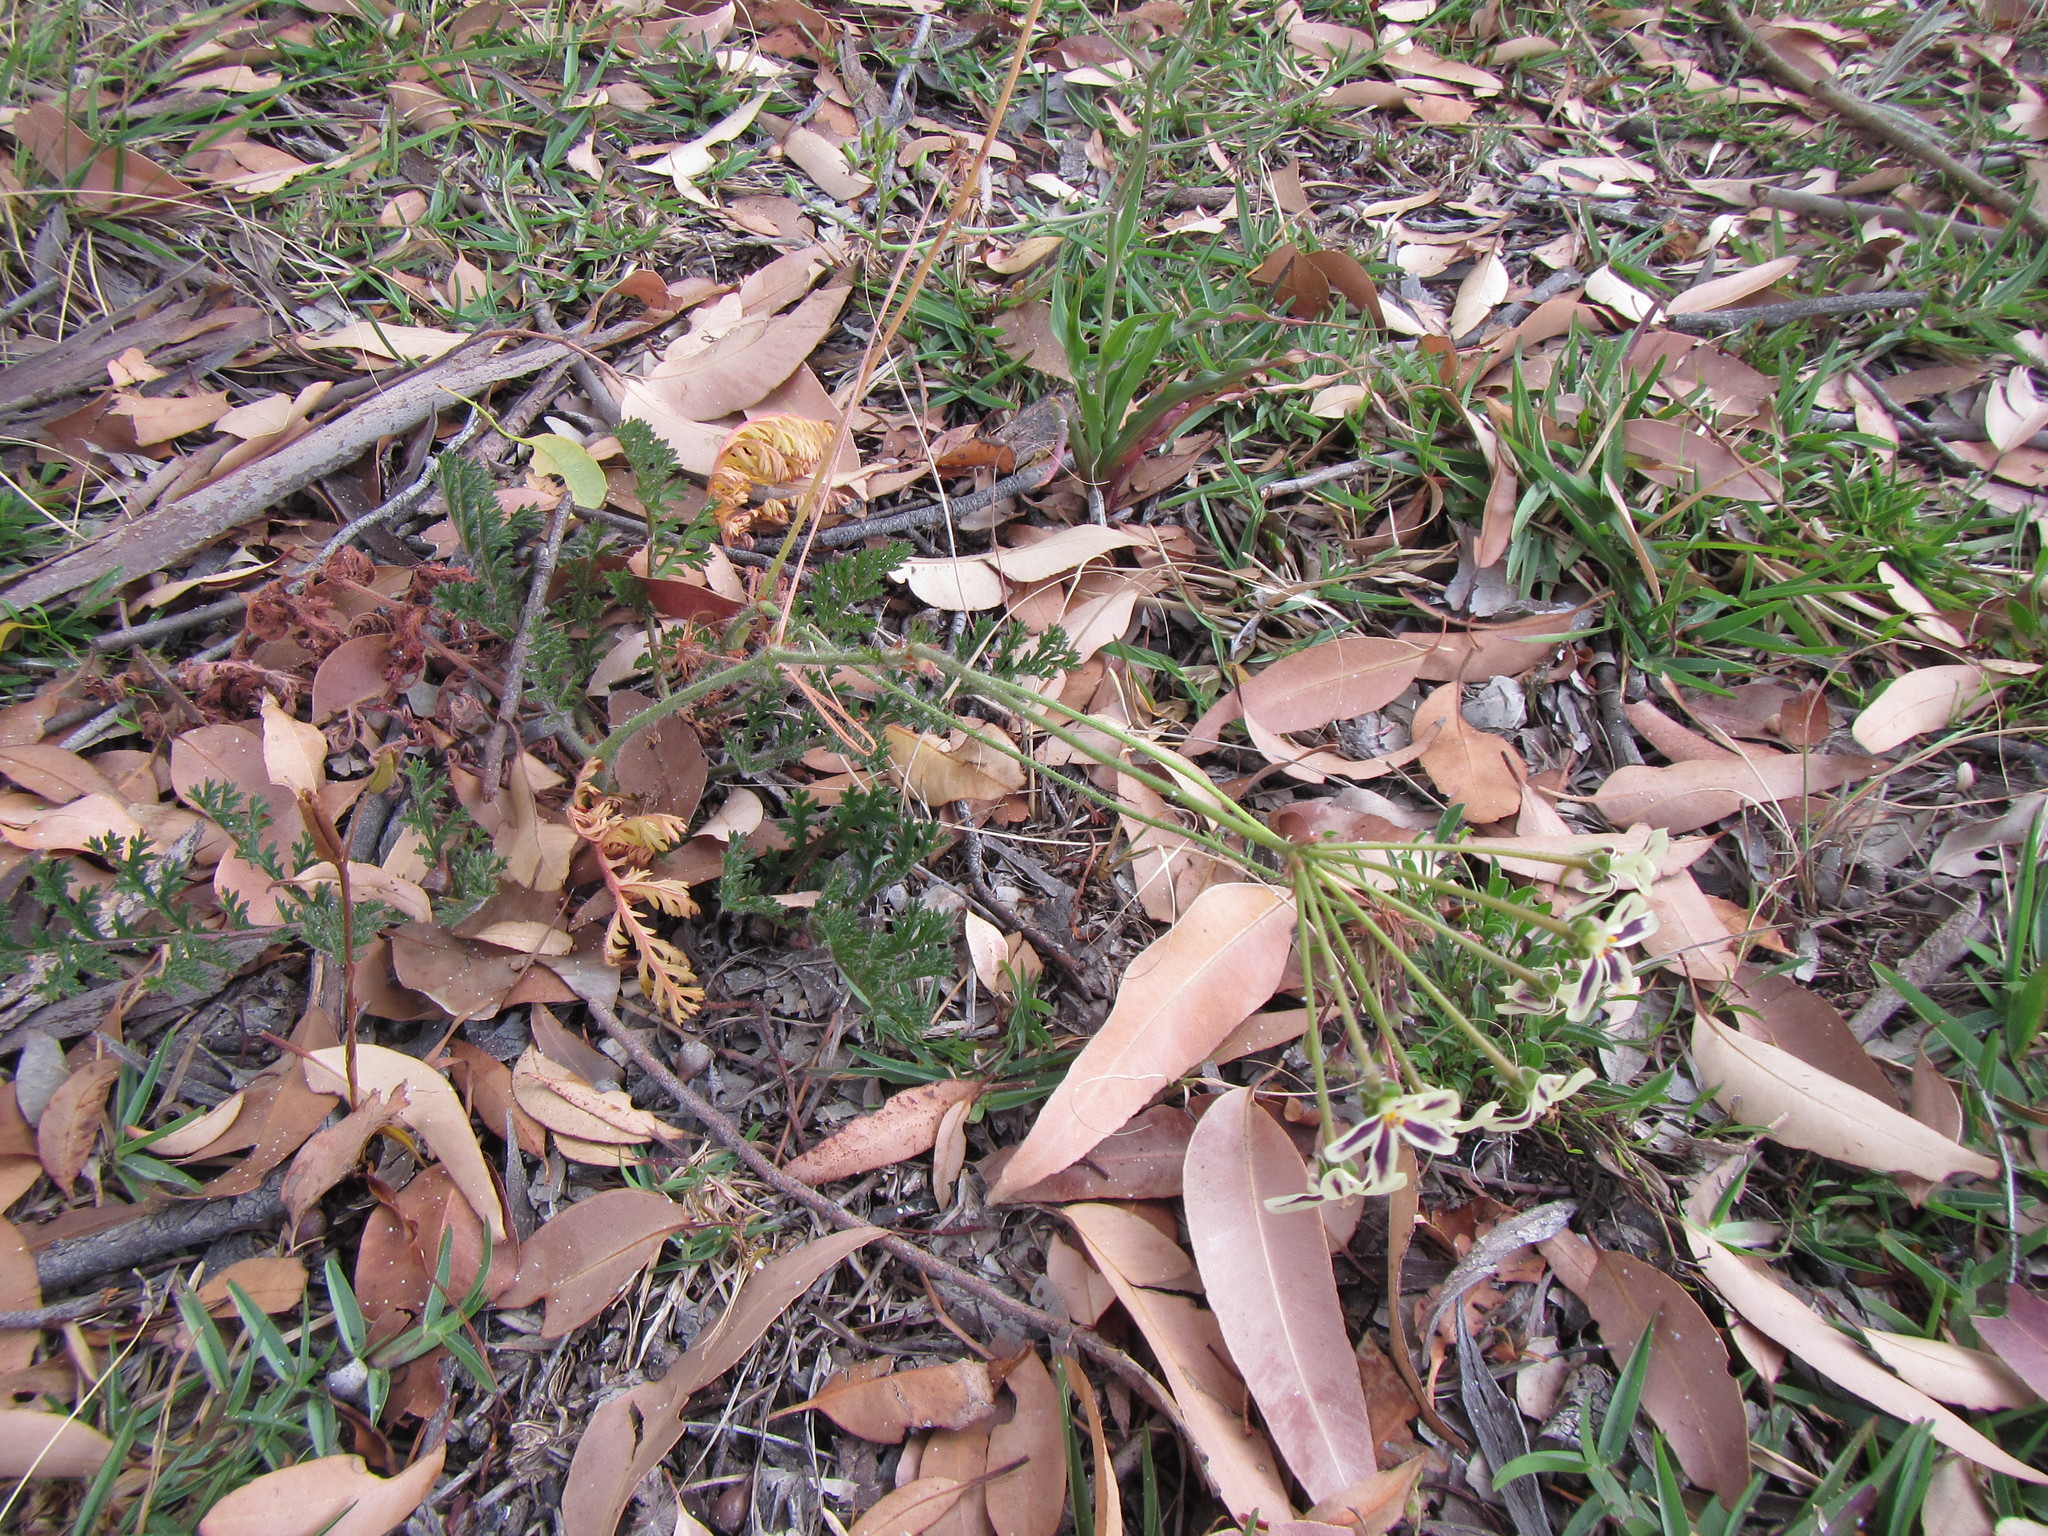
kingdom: Plantae
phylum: Tracheophyta
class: Magnoliopsida
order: Geraniales
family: Geraniaceae
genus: Pelargonium
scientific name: Pelargonium triste
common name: Night-scent pelargonium
